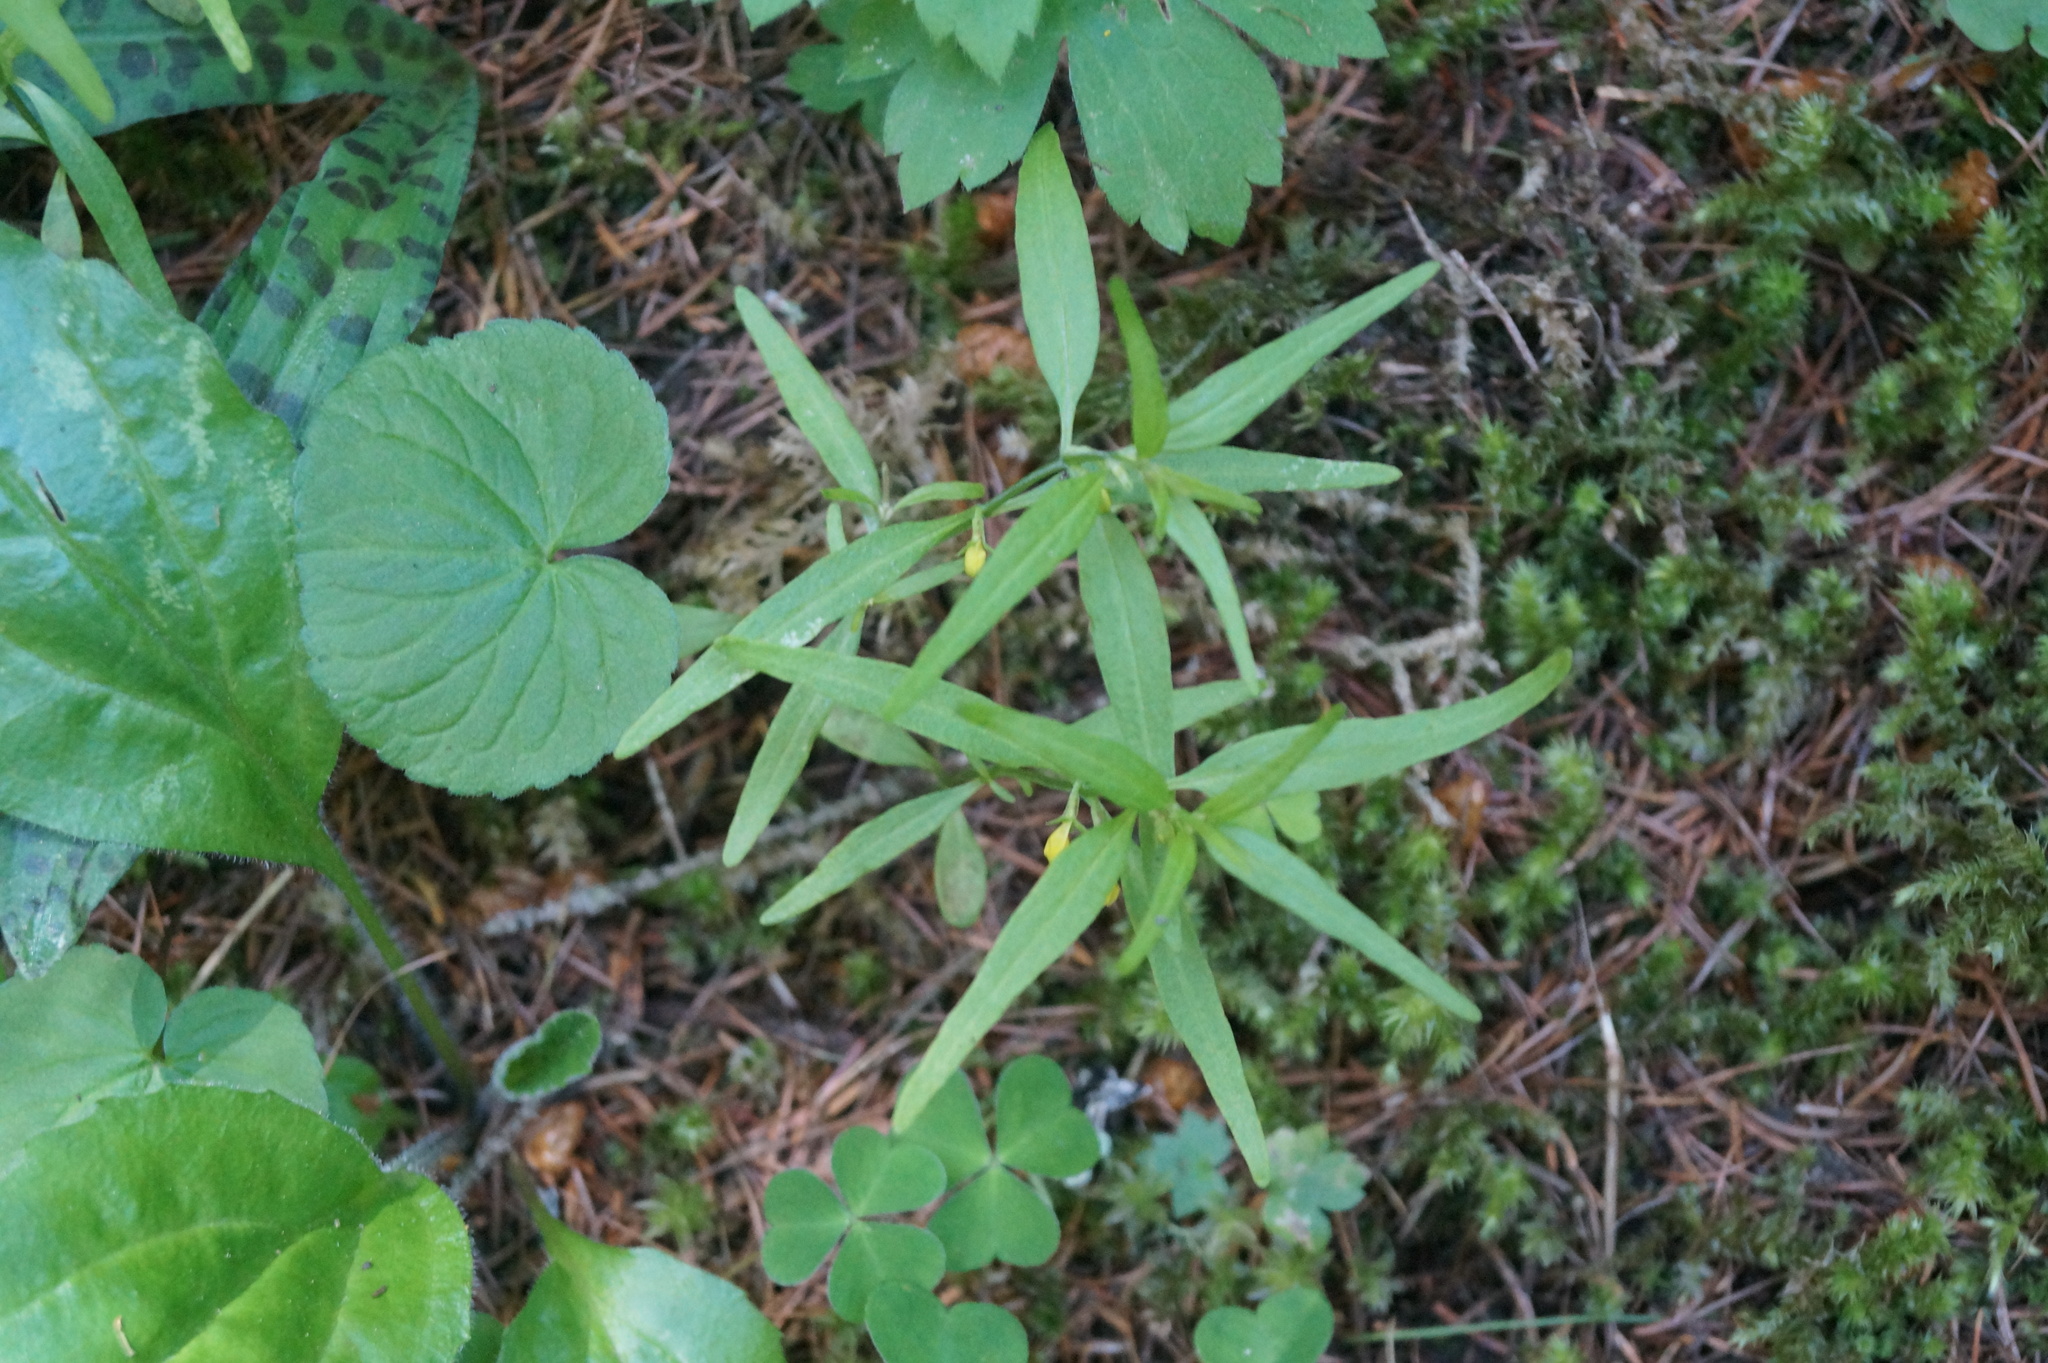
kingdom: Plantae
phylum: Tracheophyta
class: Magnoliopsida
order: Lamiales
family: Orobanchaceae
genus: Melampyrum
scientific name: Melampyrum sylvaticum
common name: Small cow-wheat
